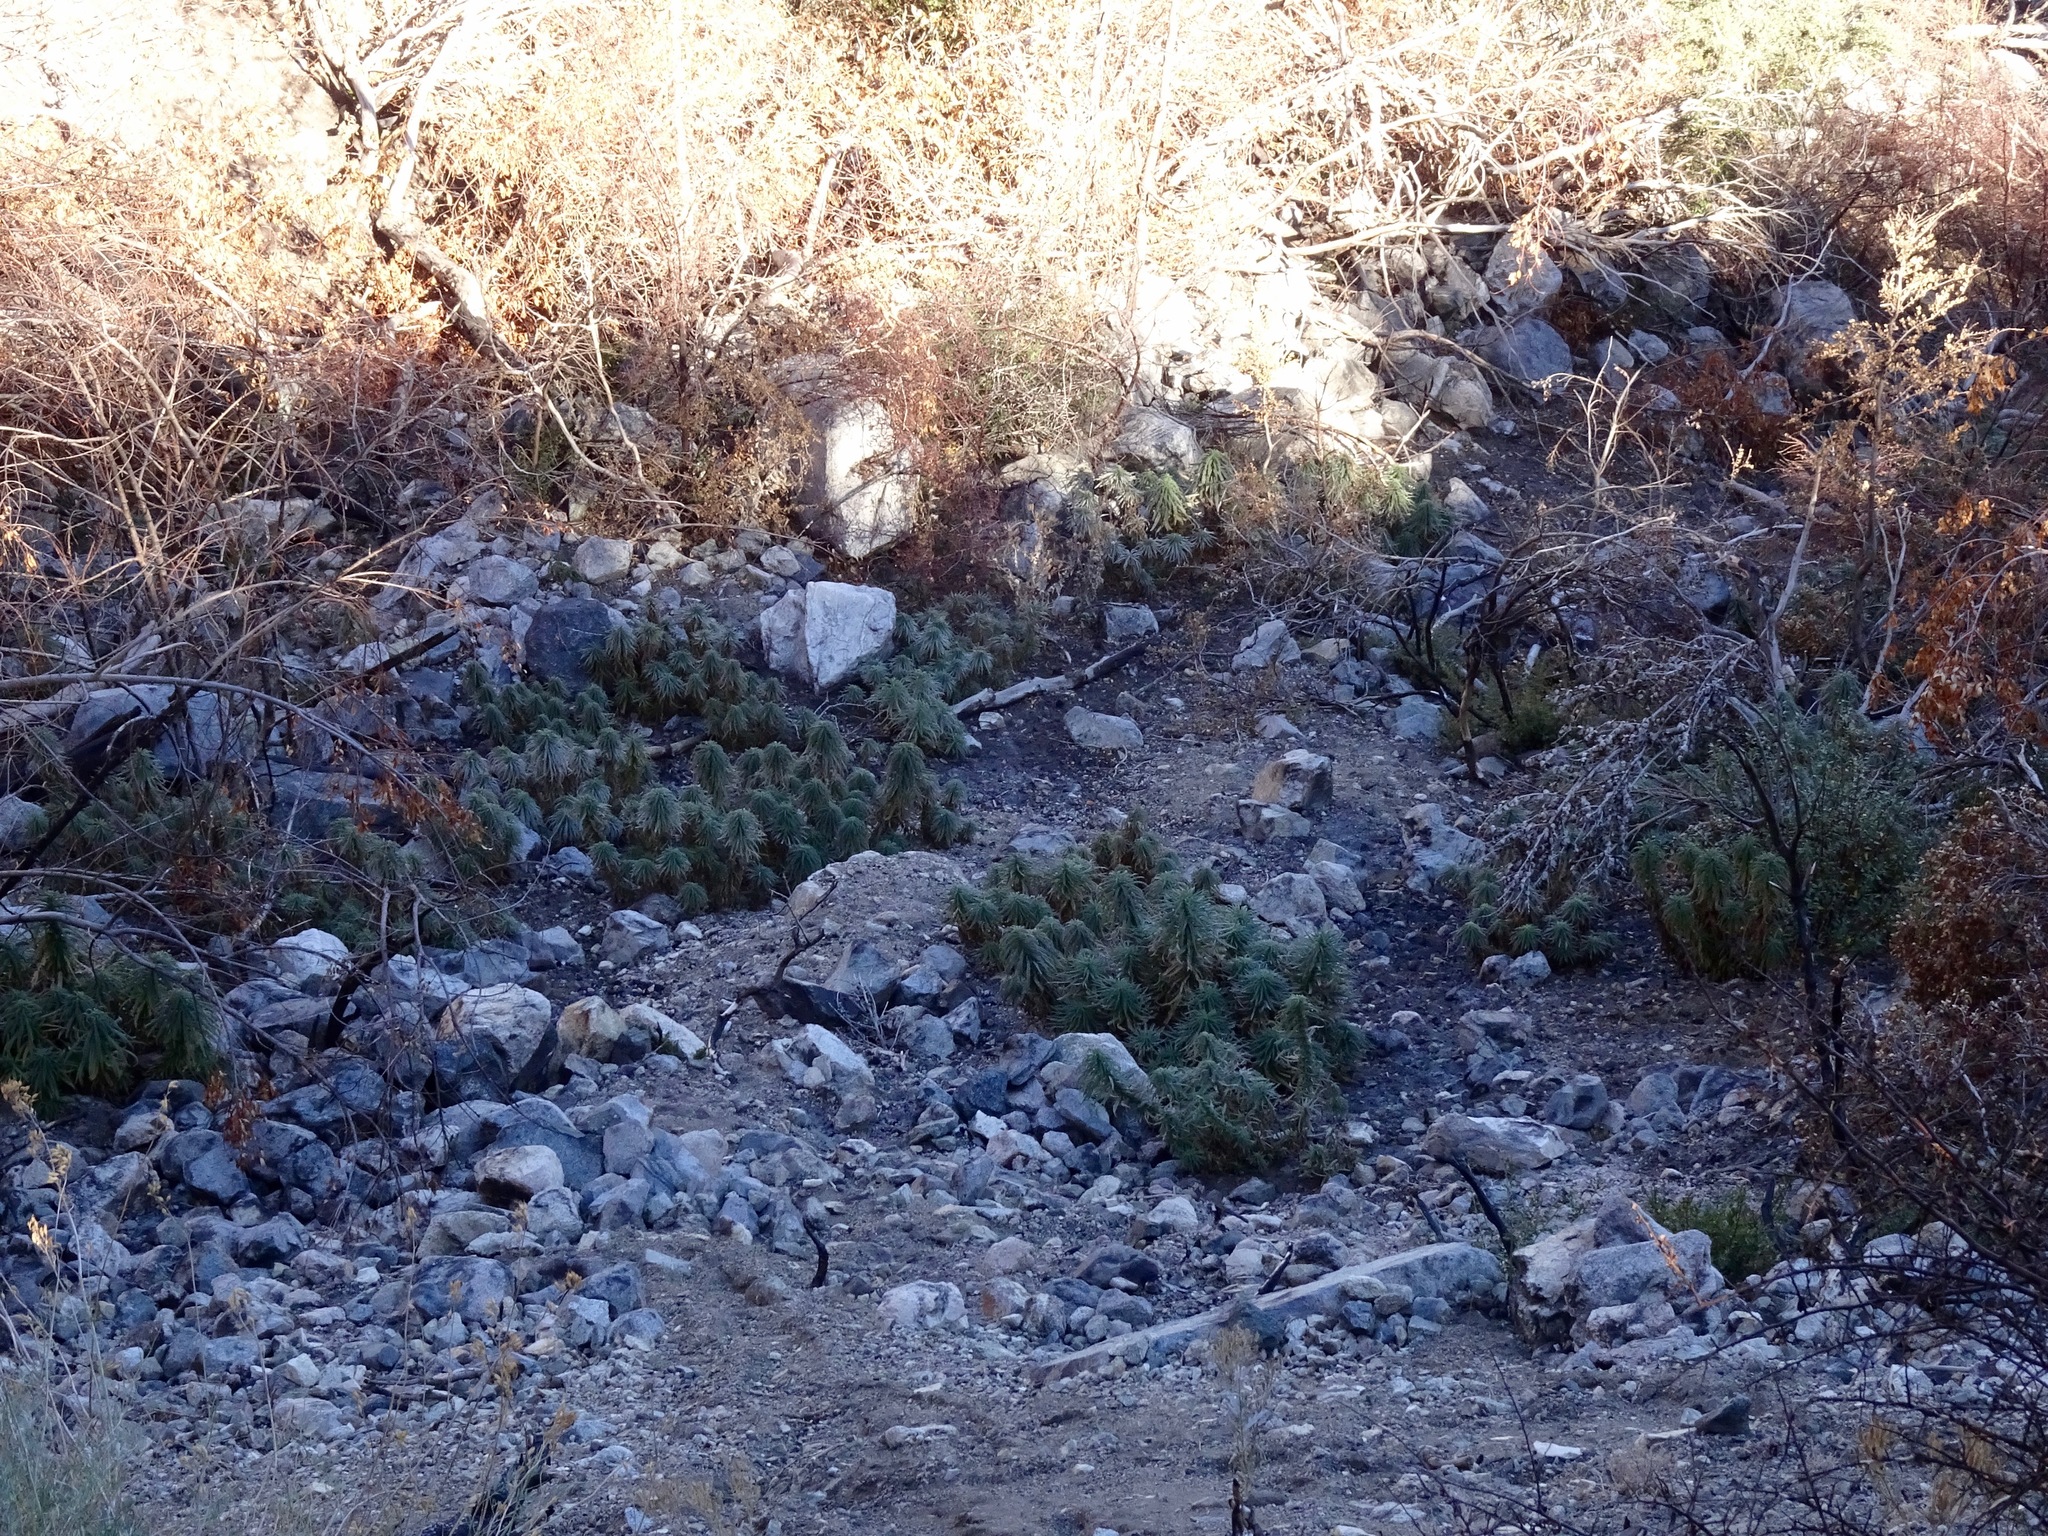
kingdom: Plantae
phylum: Tracheophyta
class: Magnoliopsida
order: Boraginales
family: Namaceae
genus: Turricula
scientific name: Turricula parryi
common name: Poodle-dog-bush
